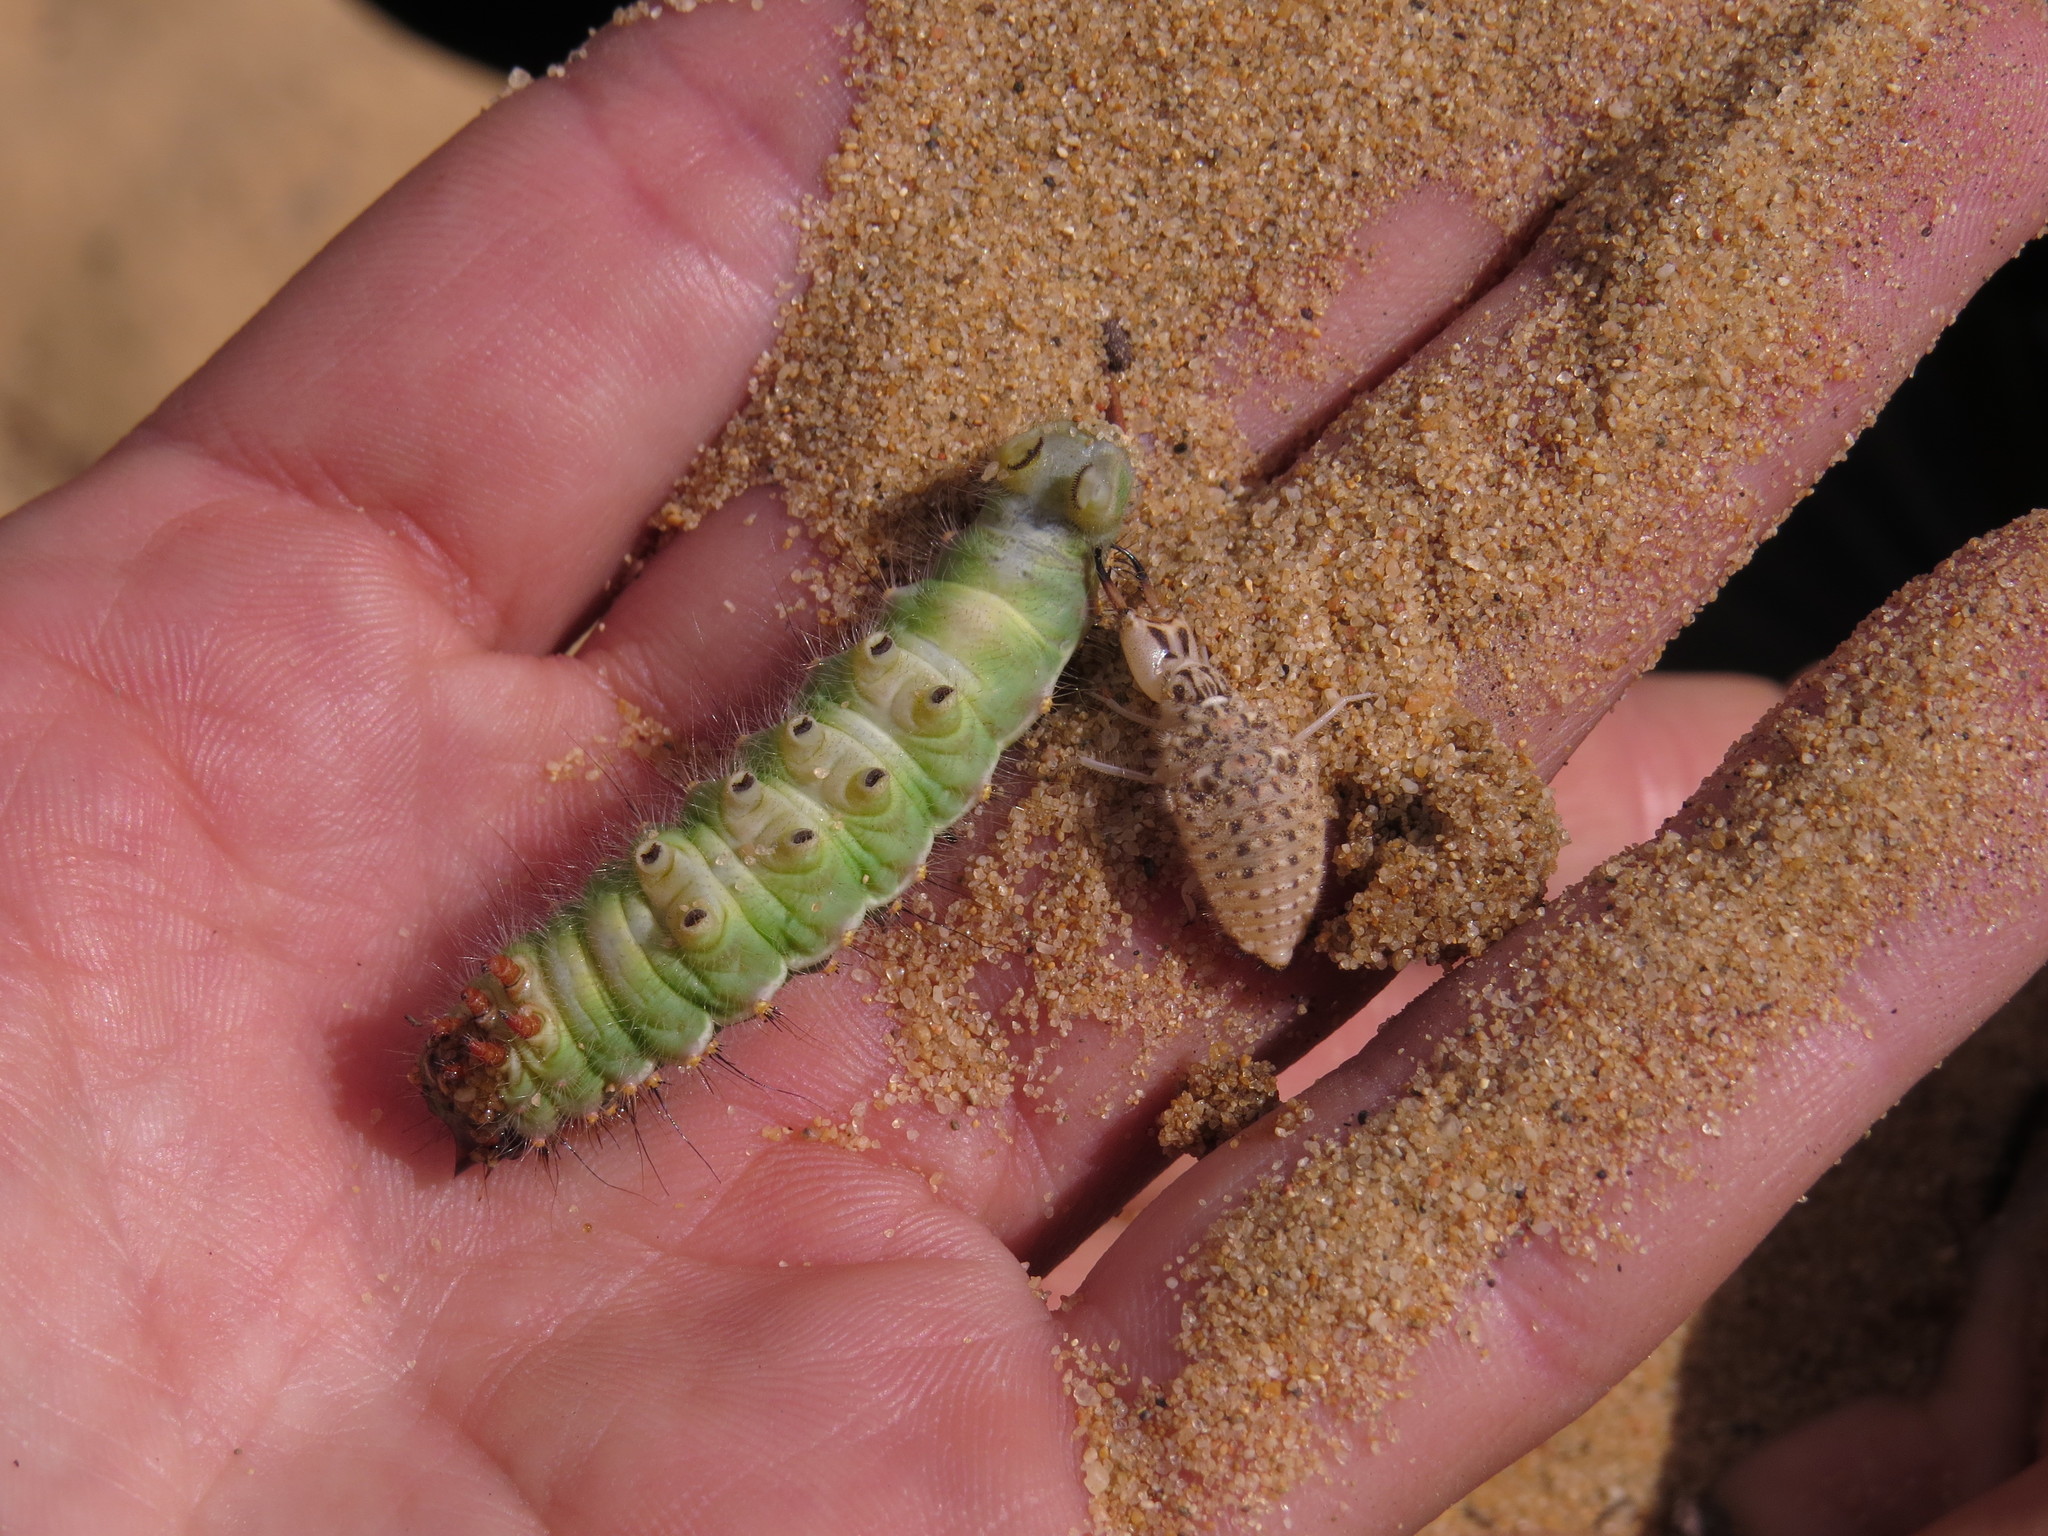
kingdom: Animalia
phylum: Arthropoda
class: Insecta
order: Neuroptera
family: Myrmeleontidae
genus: Synclisis
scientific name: Synclisis baetica
